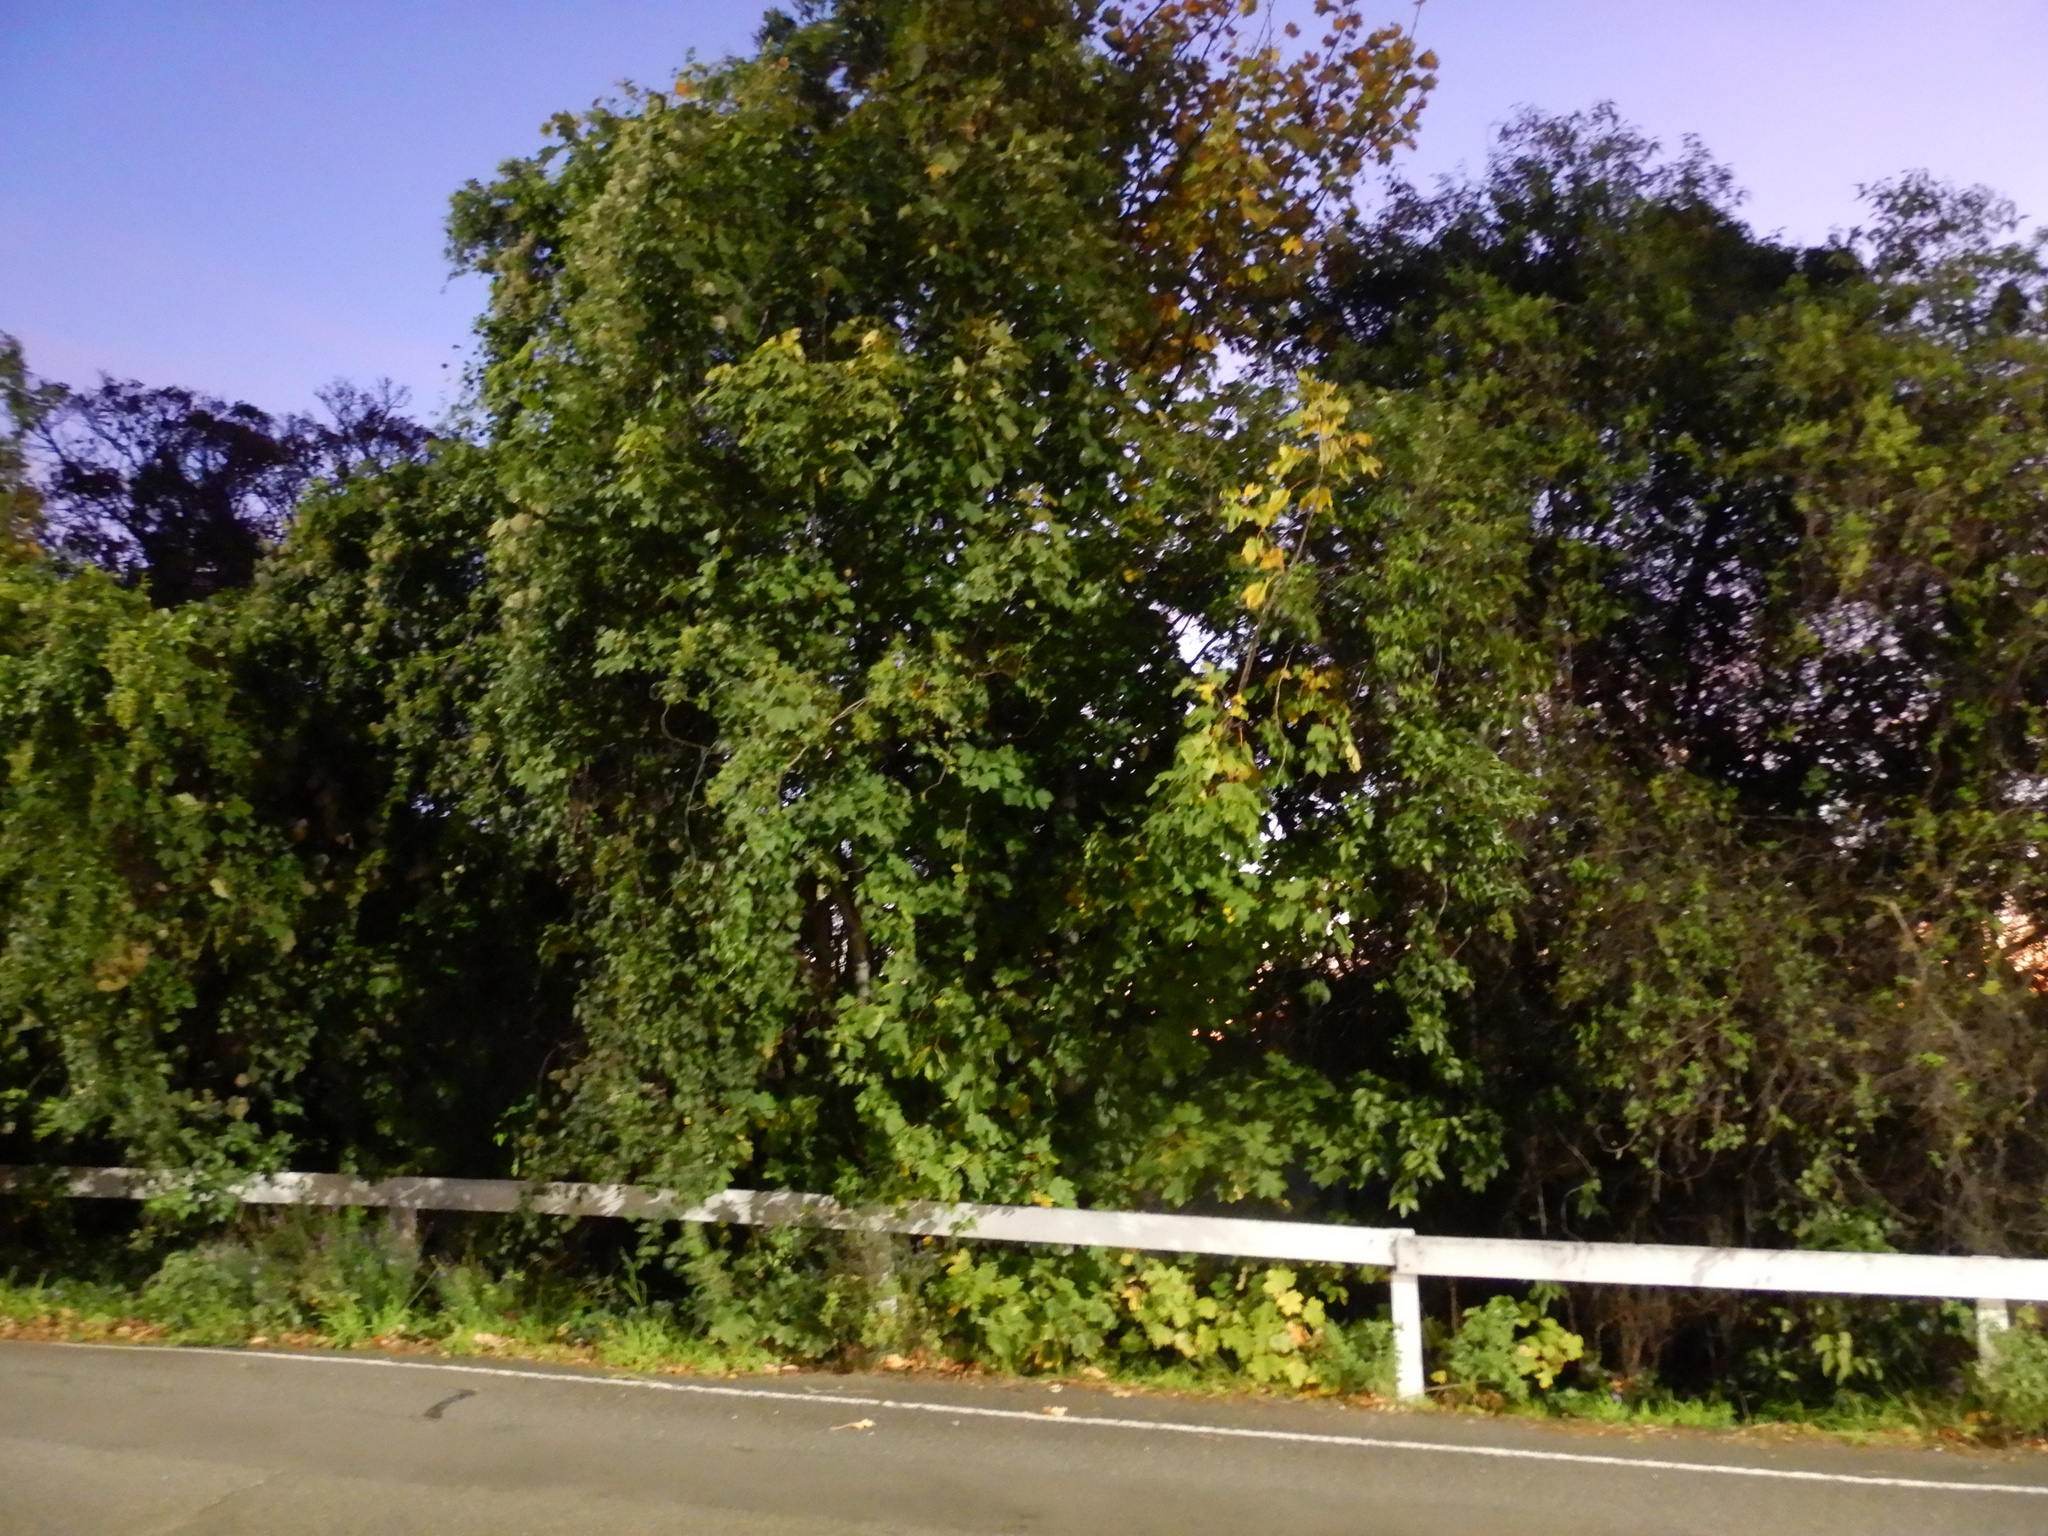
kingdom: Plantae
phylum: Tracheophyta
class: Magnoliopsida
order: Sapindales
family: Sapindaceae
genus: Acer
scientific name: Acer pseudoplatanus
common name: Sycamore
